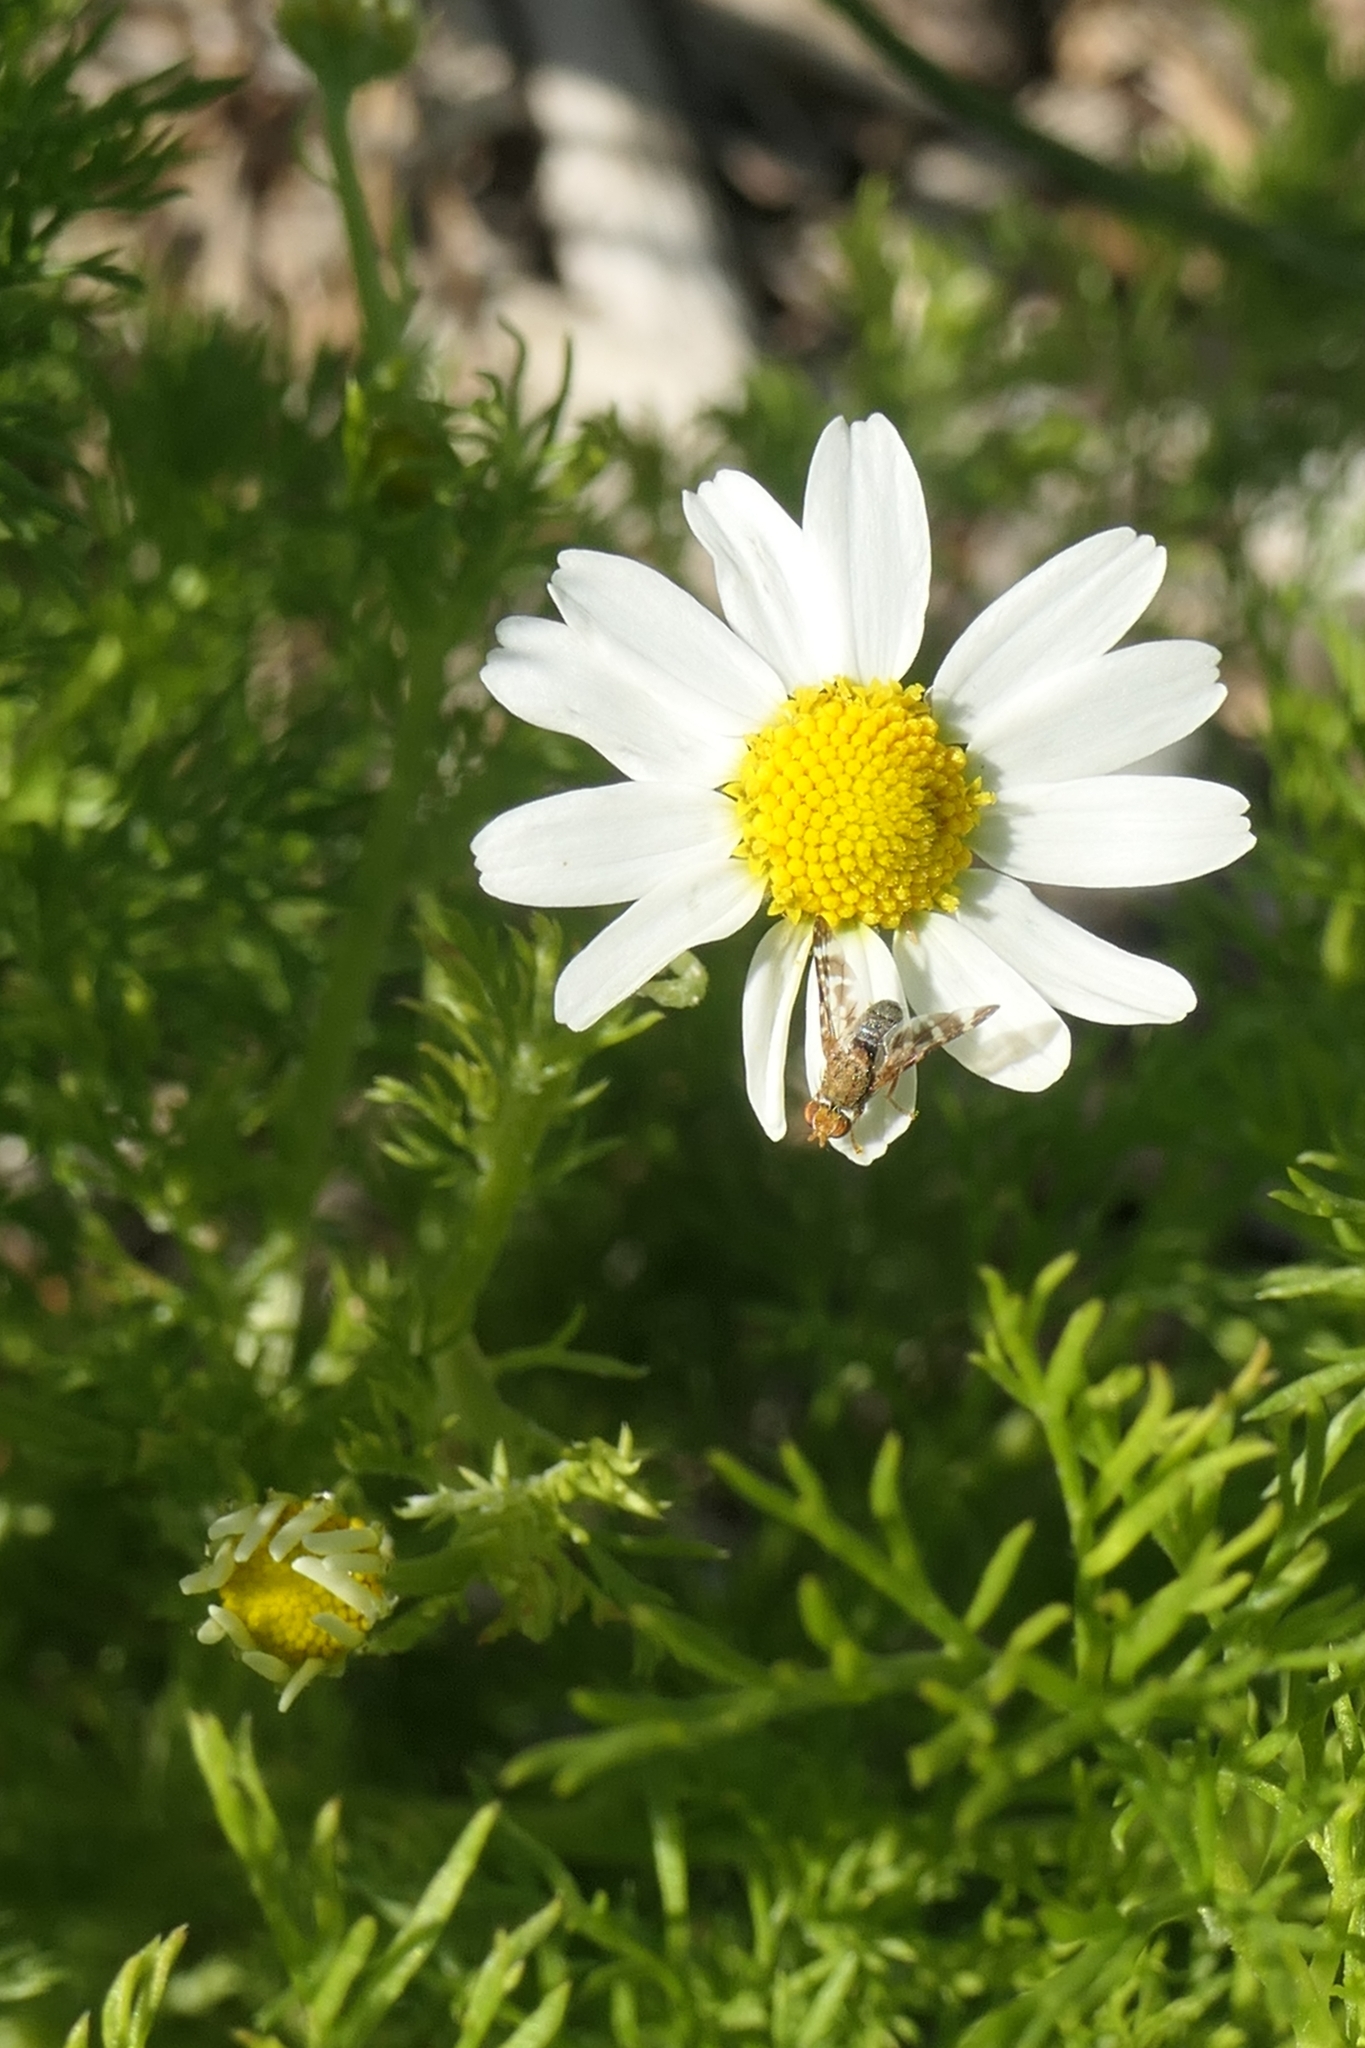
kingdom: Animalia
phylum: Arthropoda
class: Insecta
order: Diptera
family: Tephritidae
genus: Sphenella
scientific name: Sphenella
